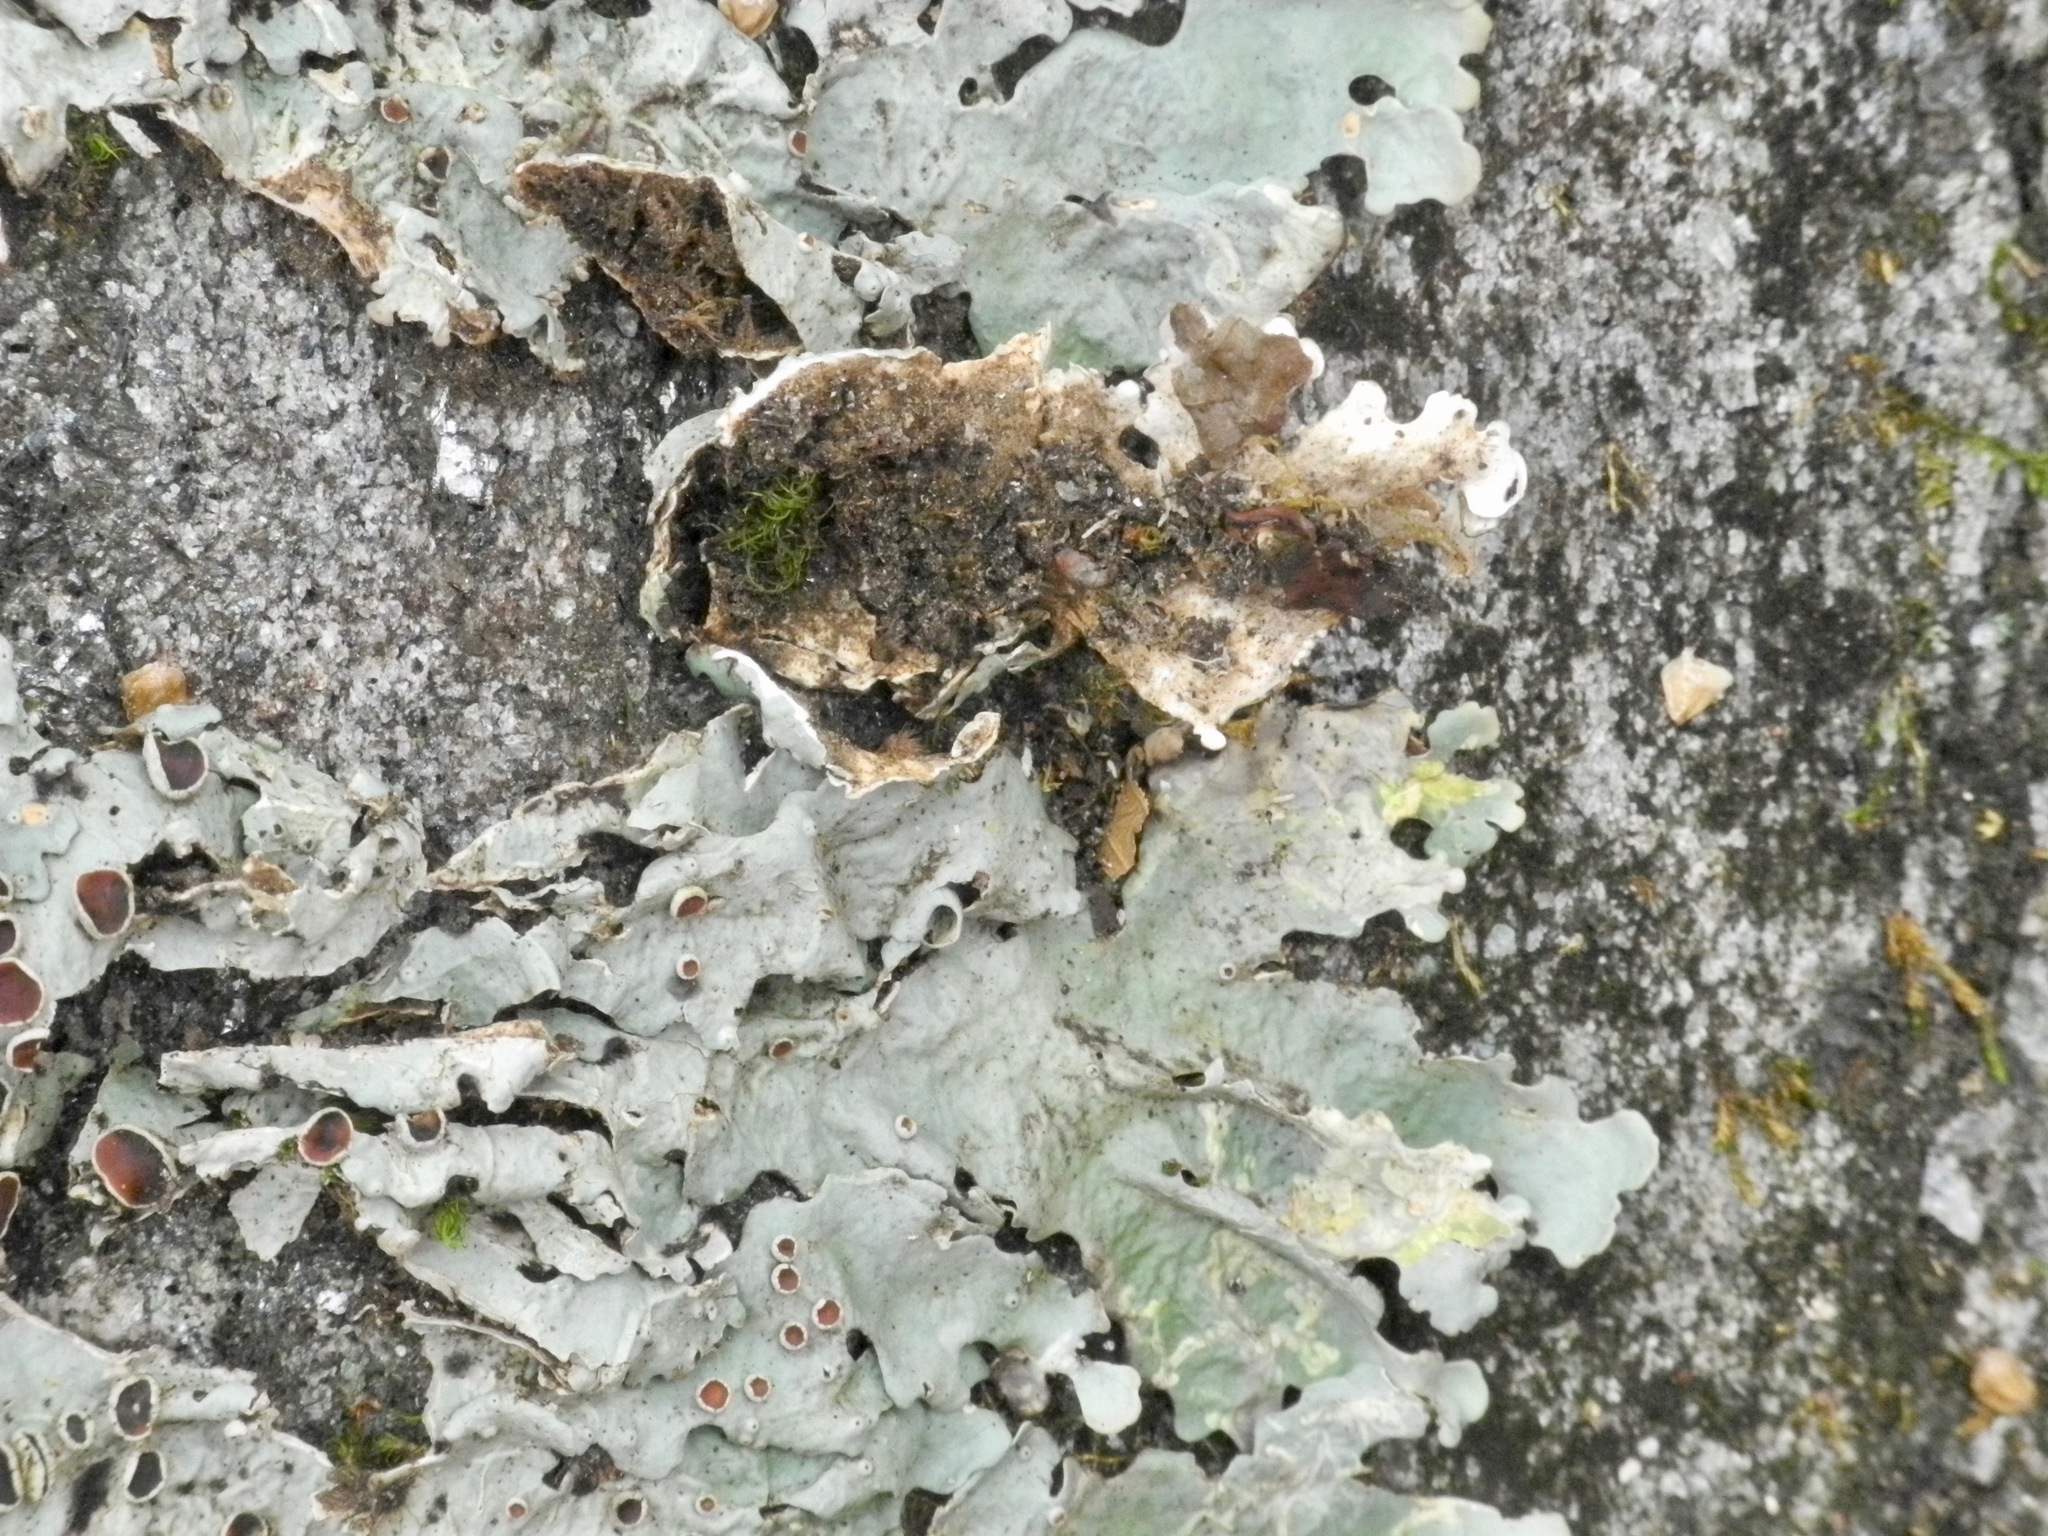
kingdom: Fungi
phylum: Ascomycota
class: Lecanoromycetes
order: Peltigerales
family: Lobariaceae
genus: Ricasolia
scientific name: Ricasolia quercizans
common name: Smooth lungwort
